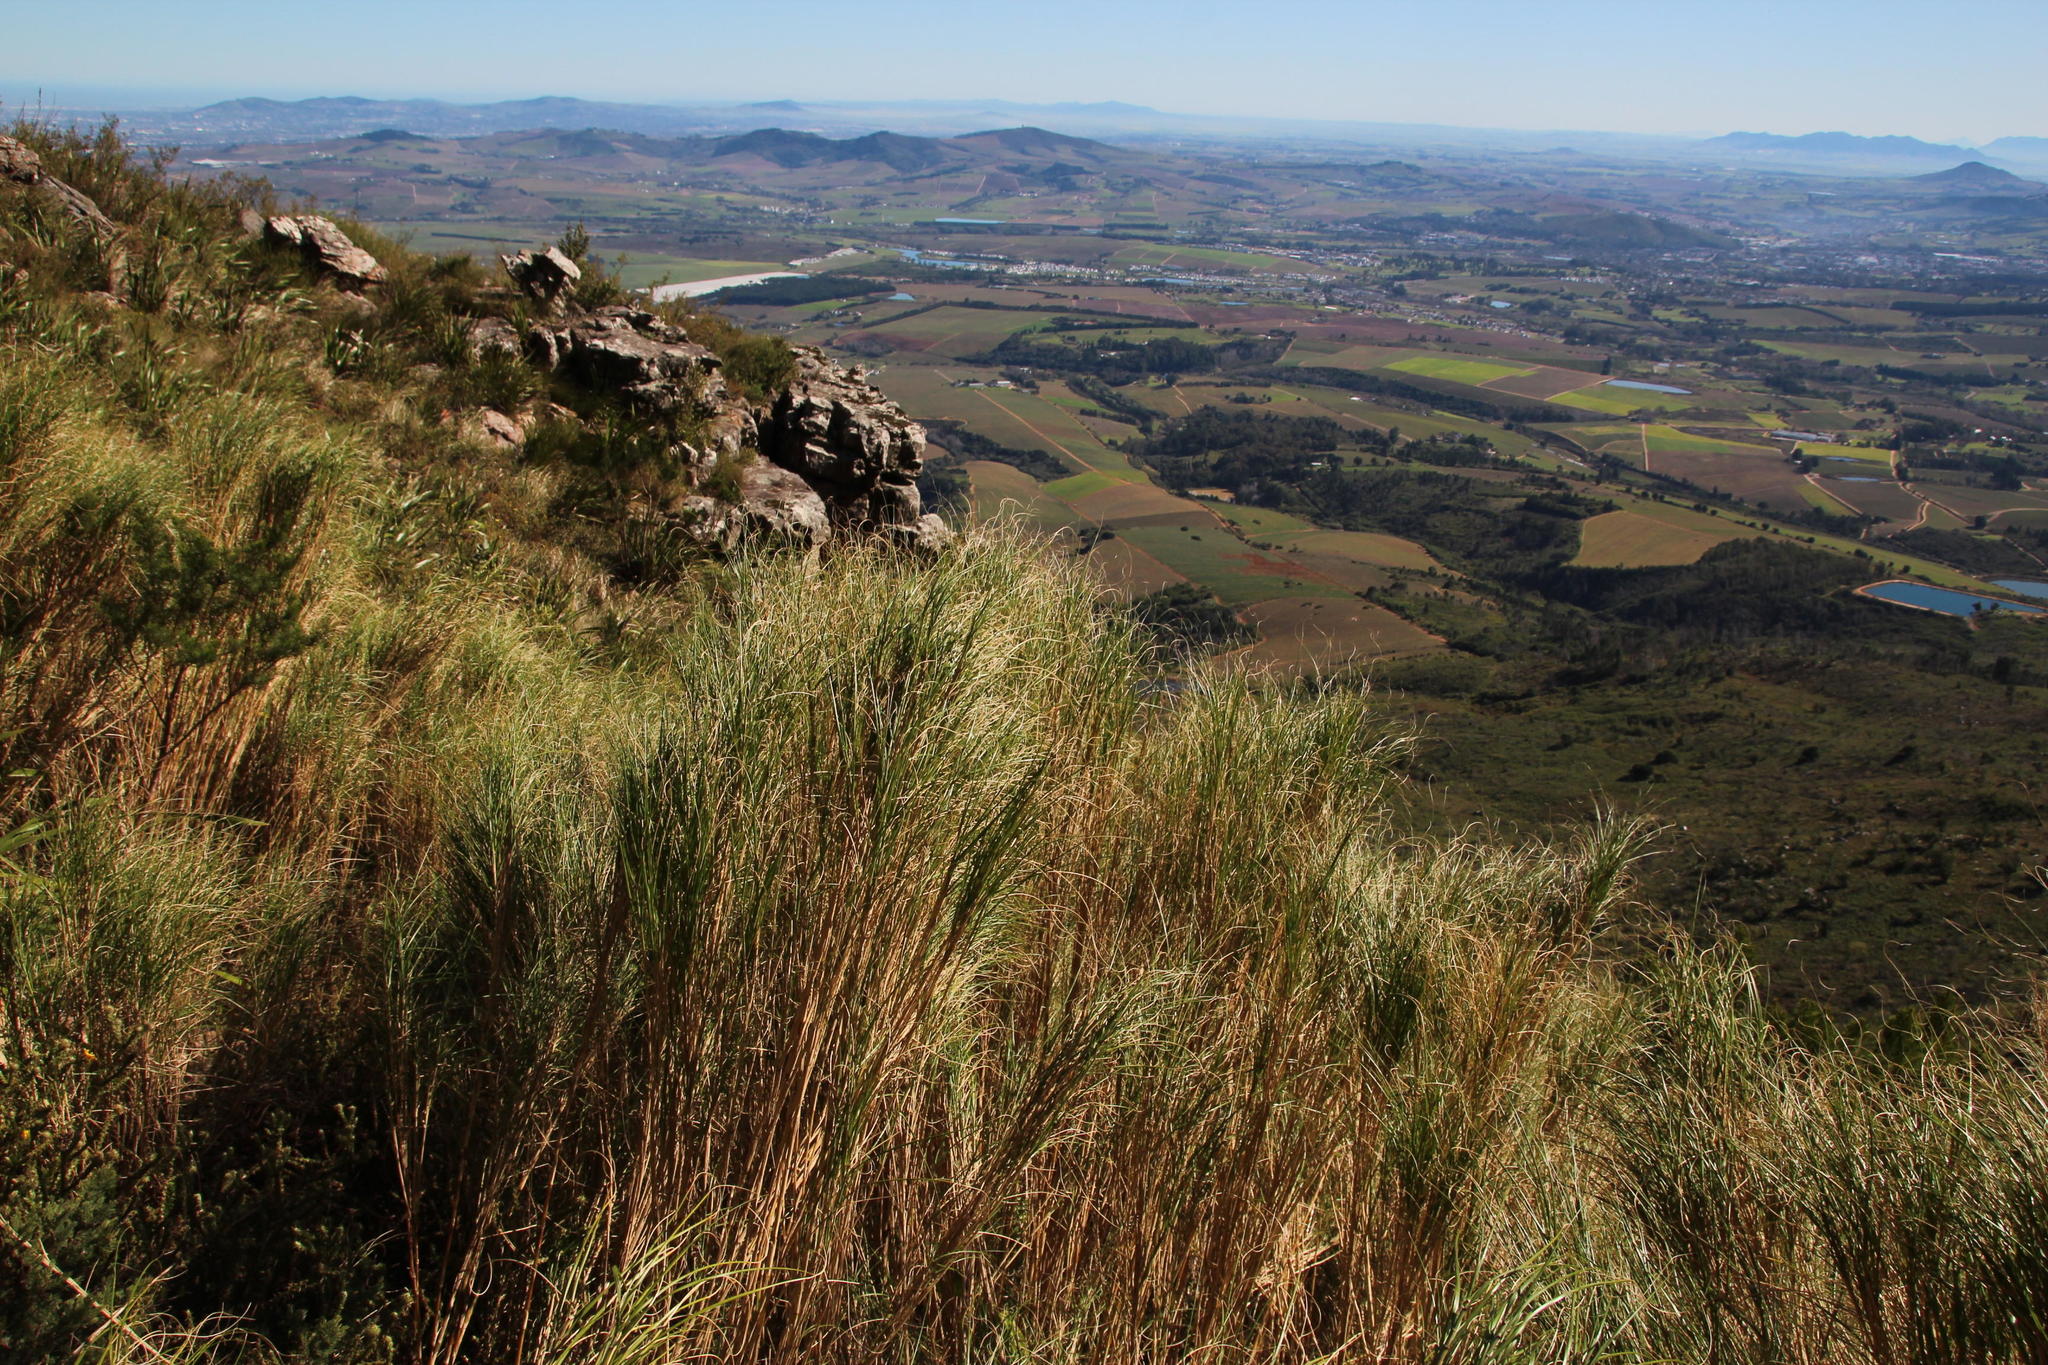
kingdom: Plantae
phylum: Tracheophyta
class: Liliopsida
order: Poales
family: Poaceae
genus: Pentameris
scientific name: Pentameris thuarii
